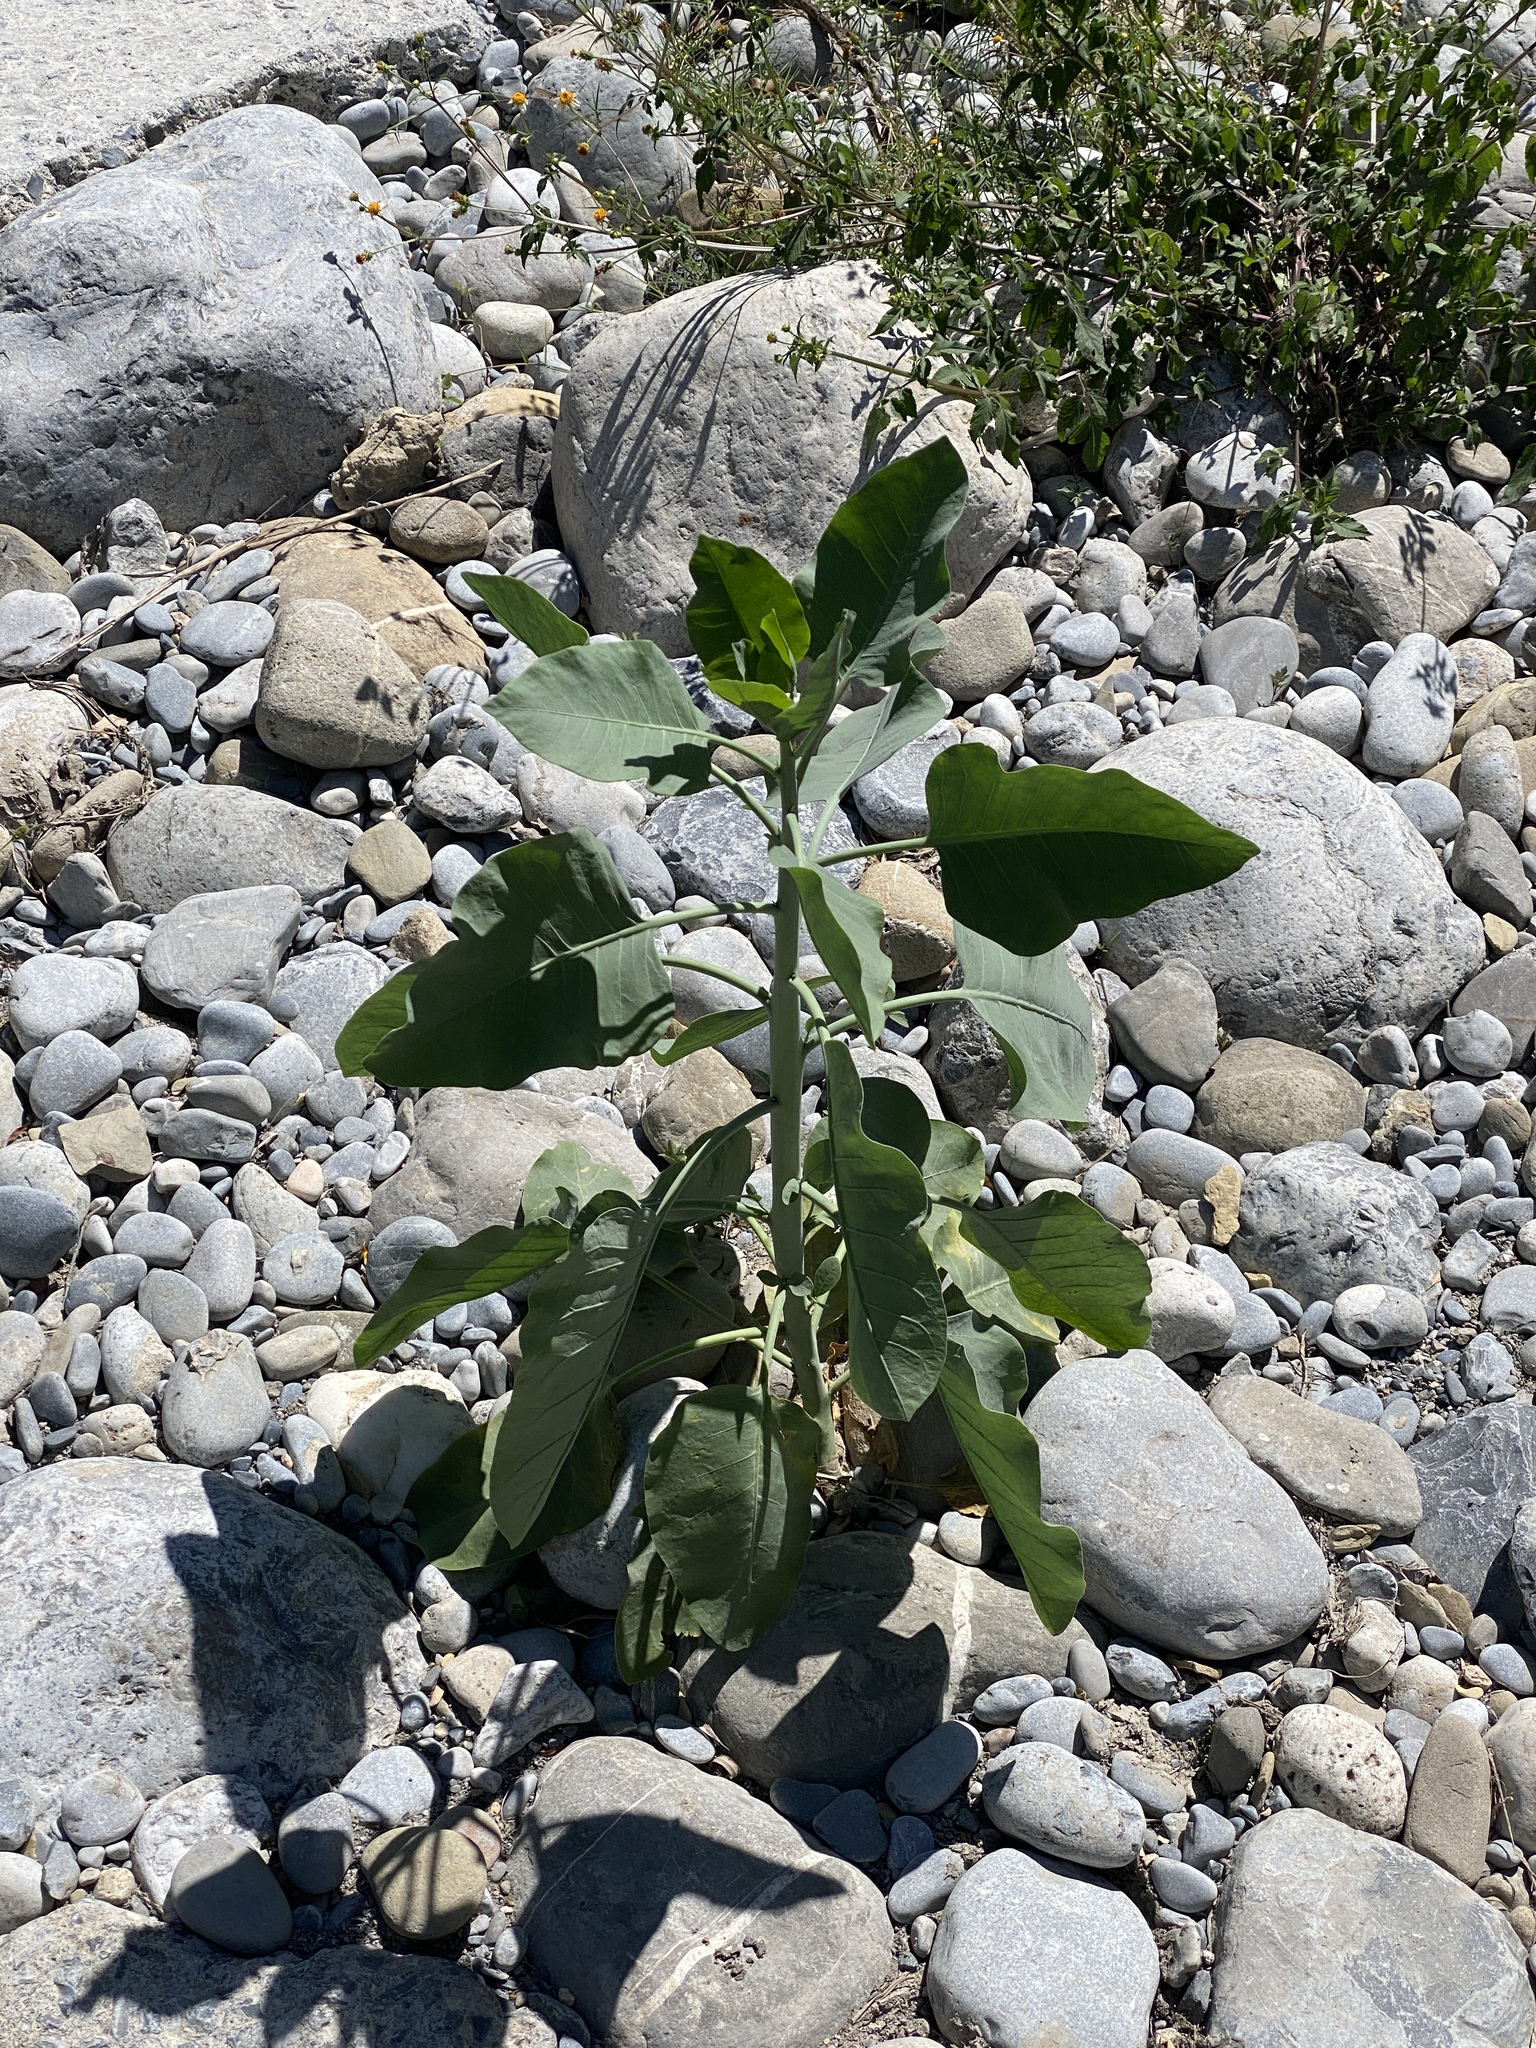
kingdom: Plantae
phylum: Tracheophyta
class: Magnoliopsida
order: Solanales
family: Solanaceae
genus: Nicotiana
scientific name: Nicotiana glauca
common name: Tree tobacco
